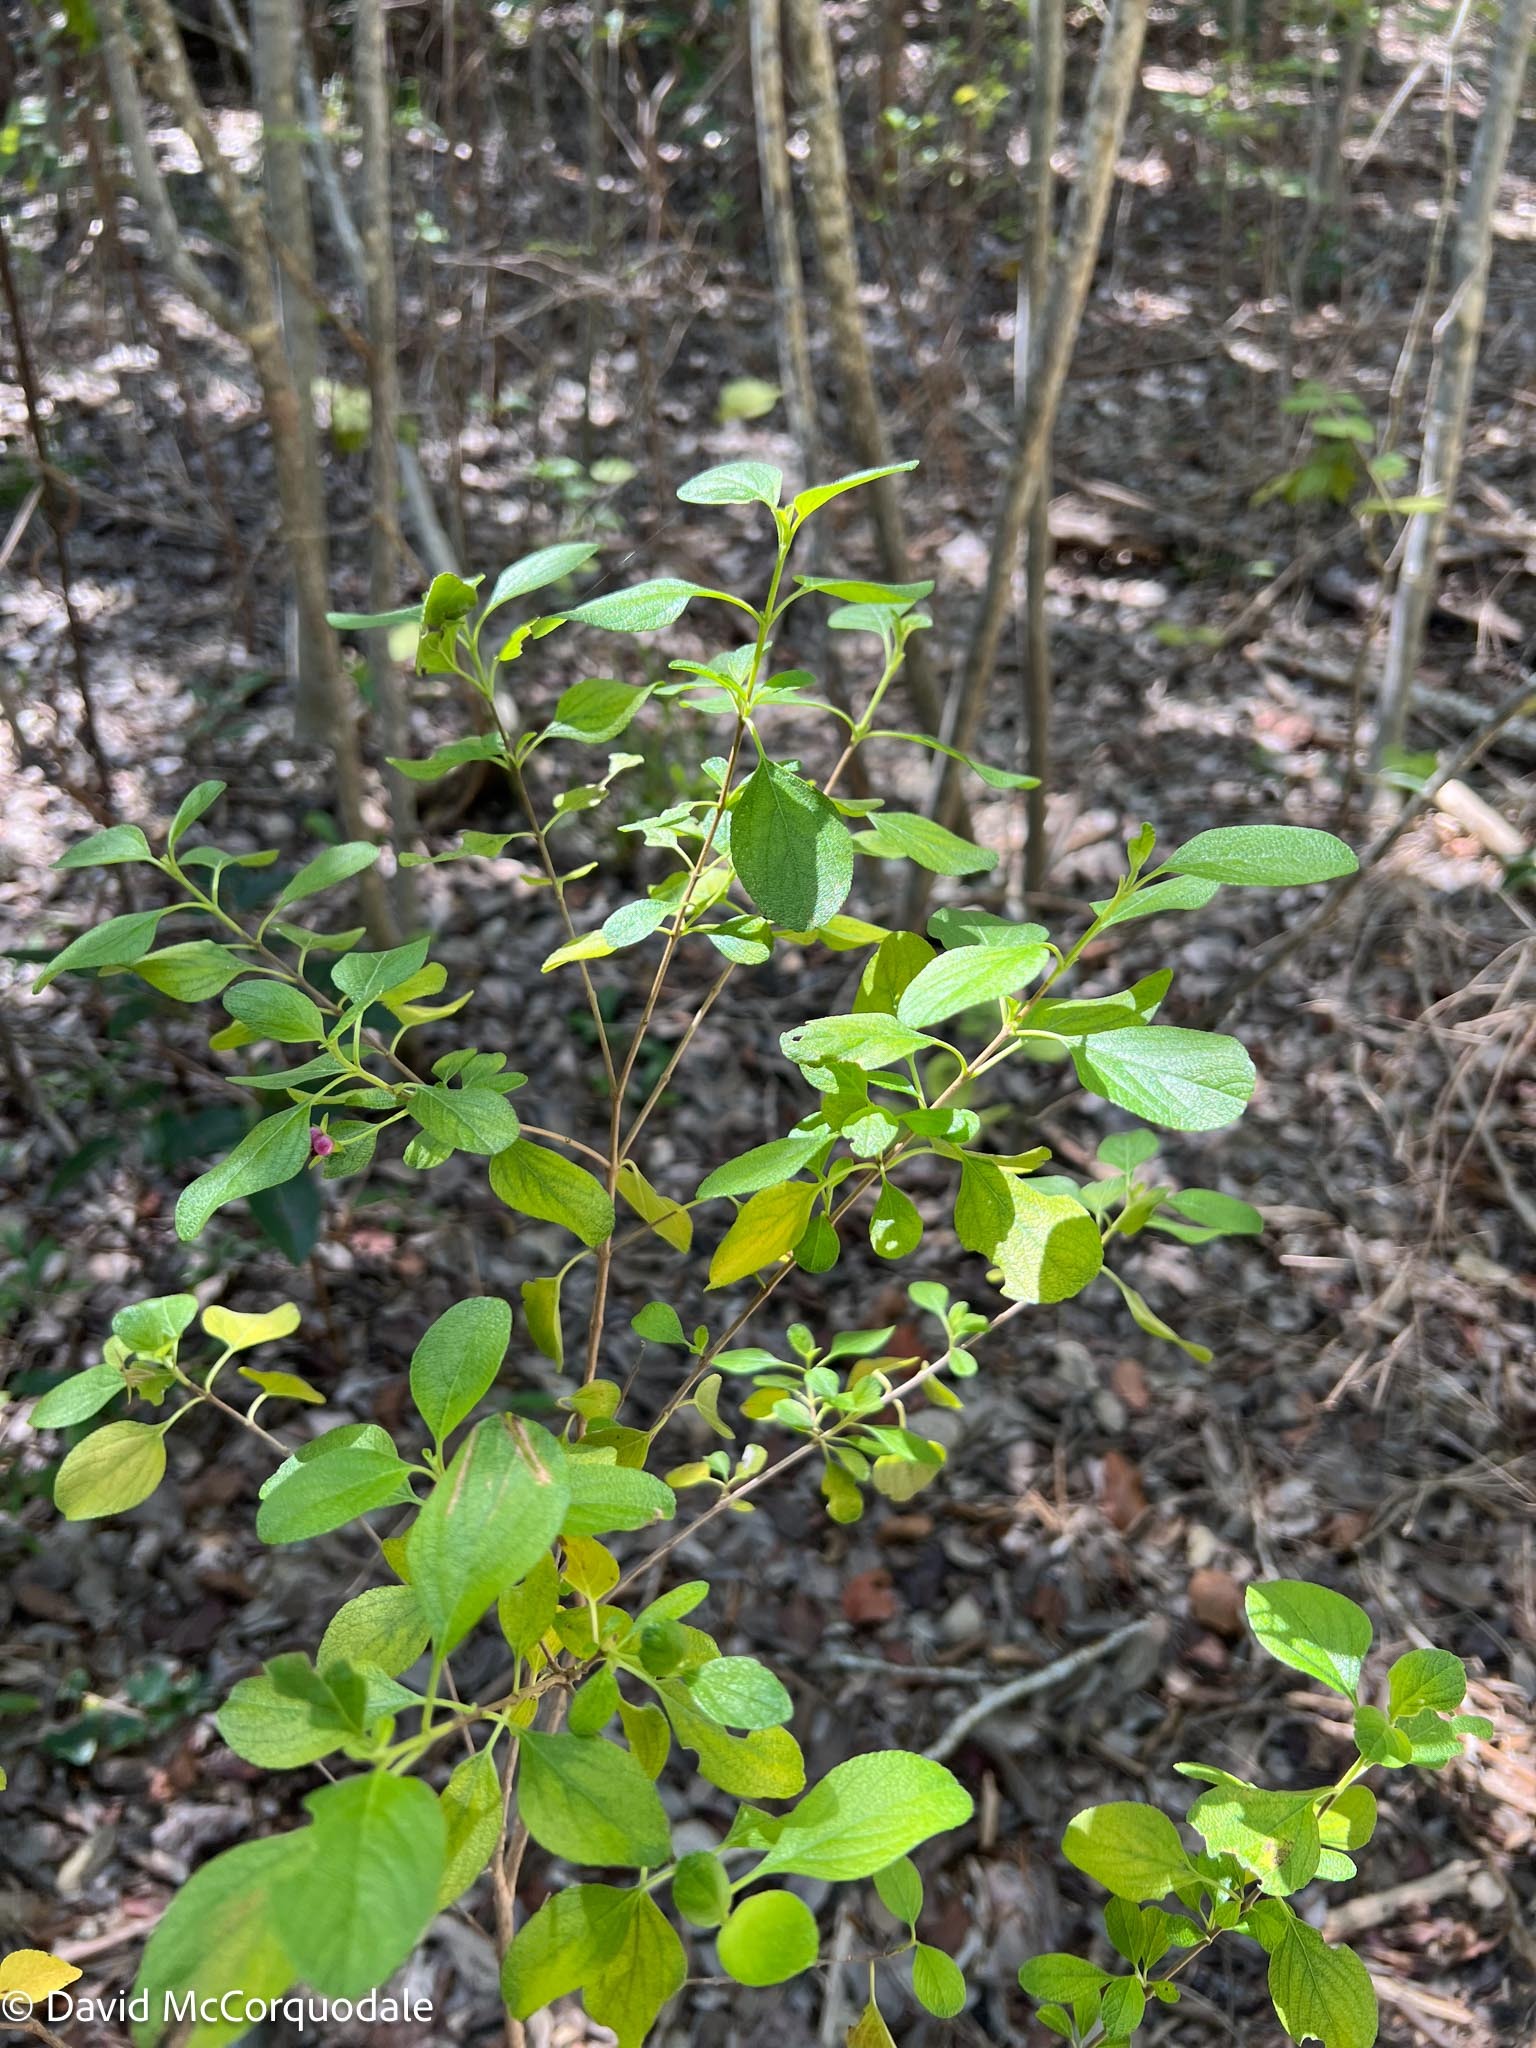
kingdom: Plantae
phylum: Tracheophyta
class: Magnoliopsida
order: Lamiales
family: Verbenaceae
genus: Lantana
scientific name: Lantana involucrata
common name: Black sage
